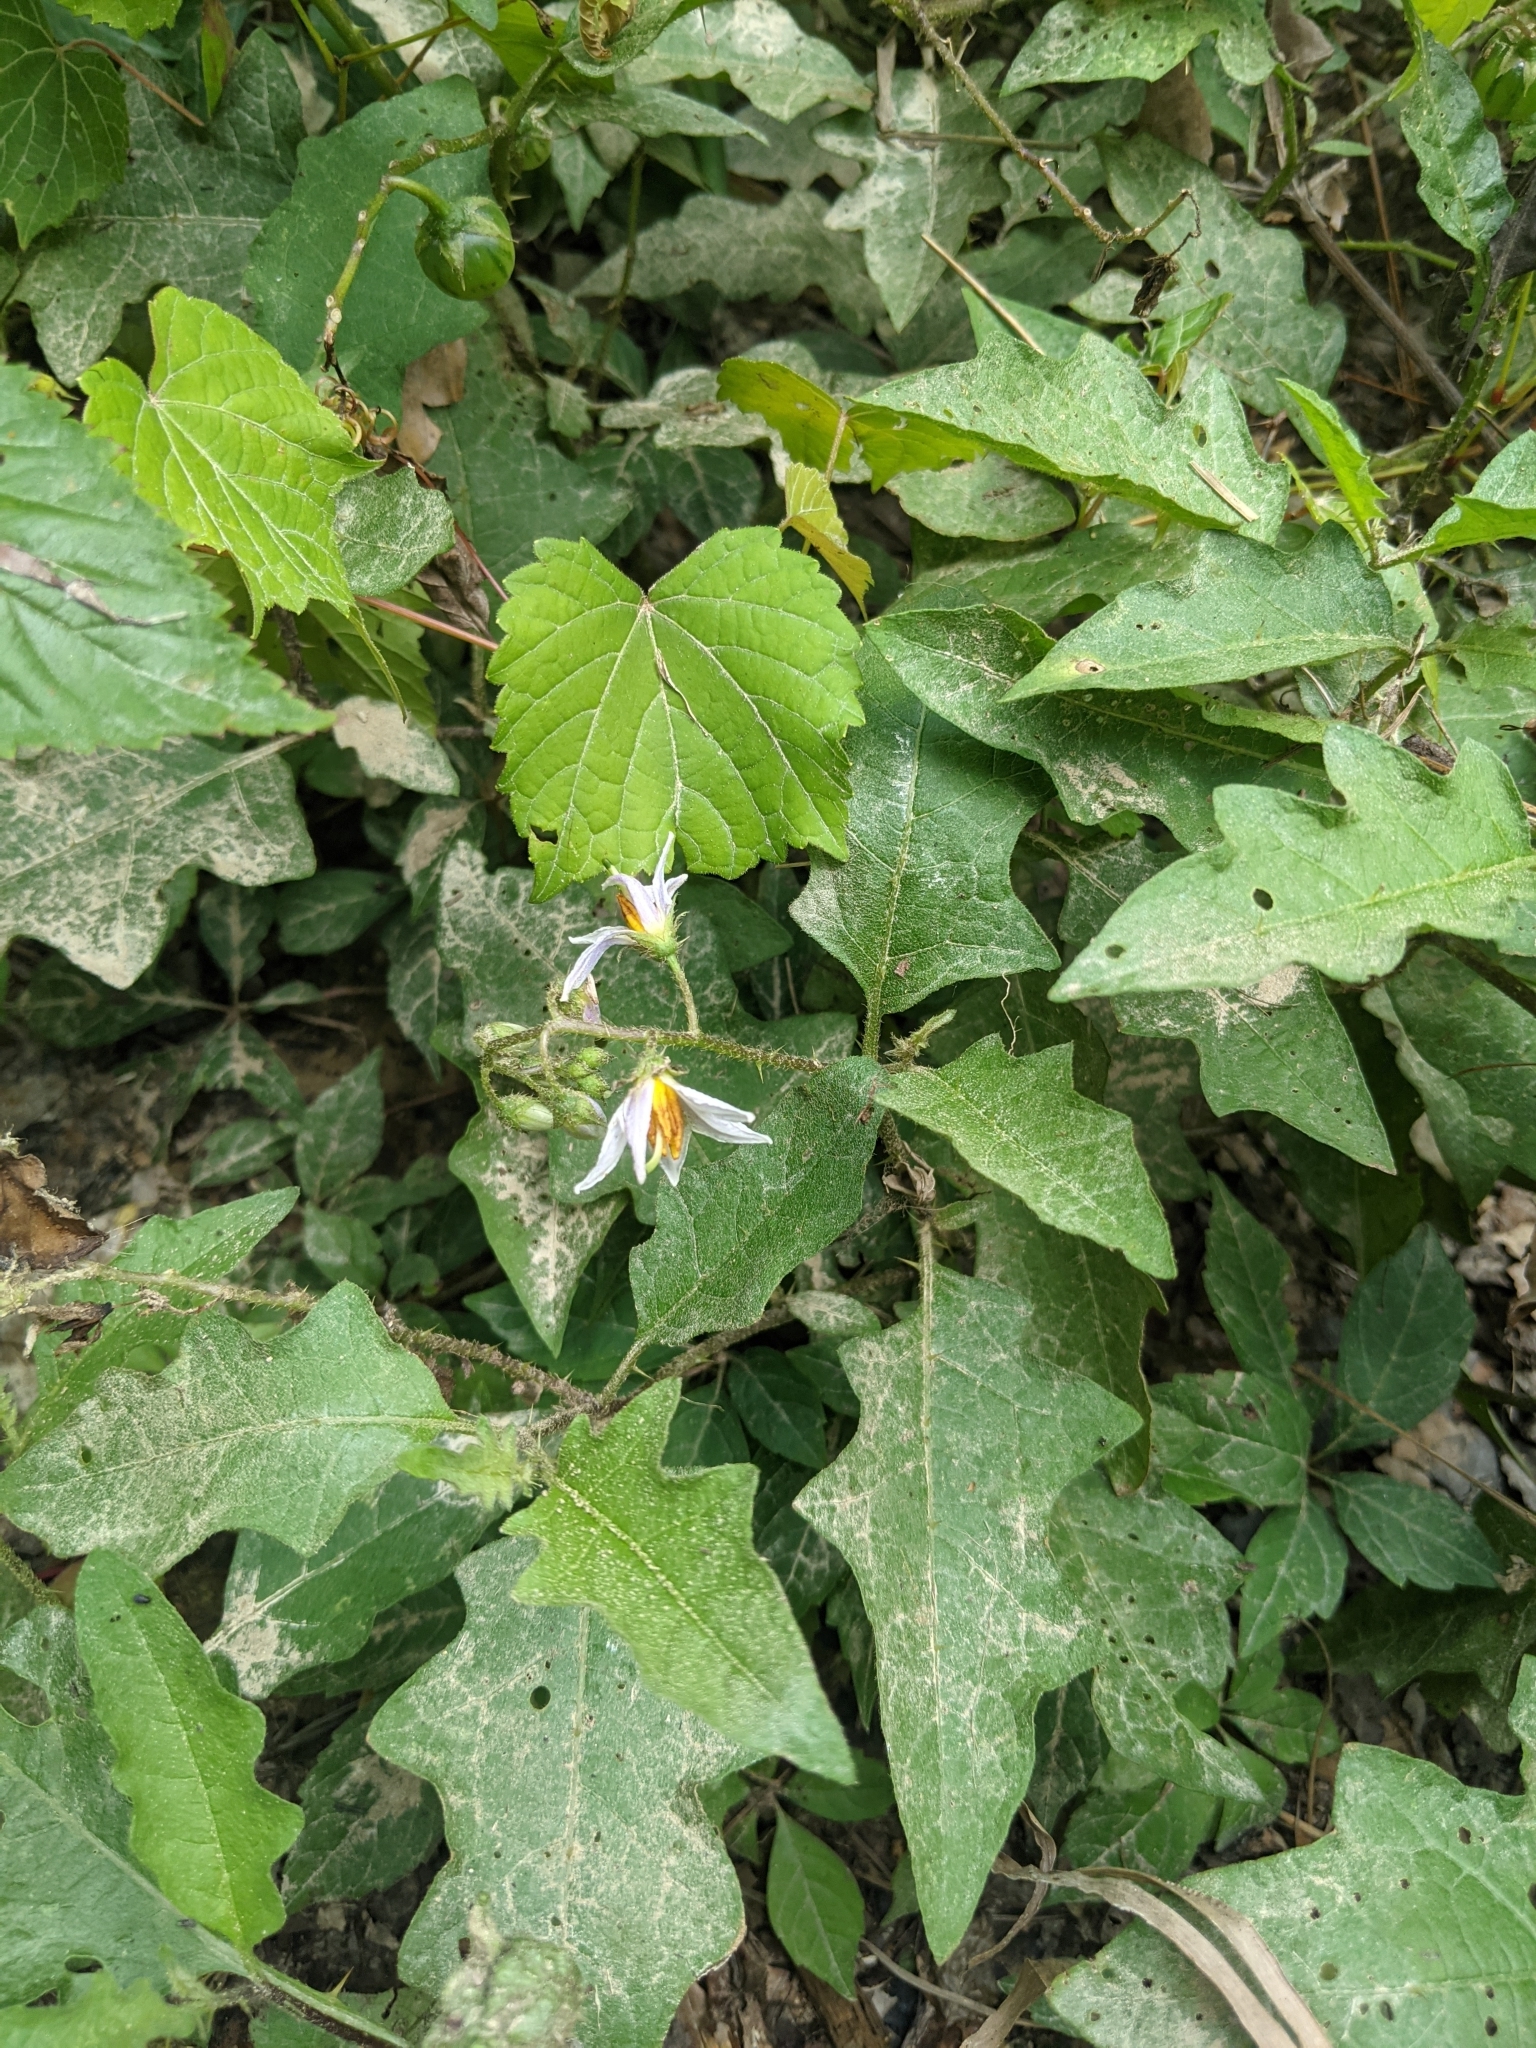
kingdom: Plantae
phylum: Tracheophyta
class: Magnoliopsida
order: Solanales
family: Solanaceae
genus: Solanum
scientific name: Solanum carolinense
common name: Horse-nettle
